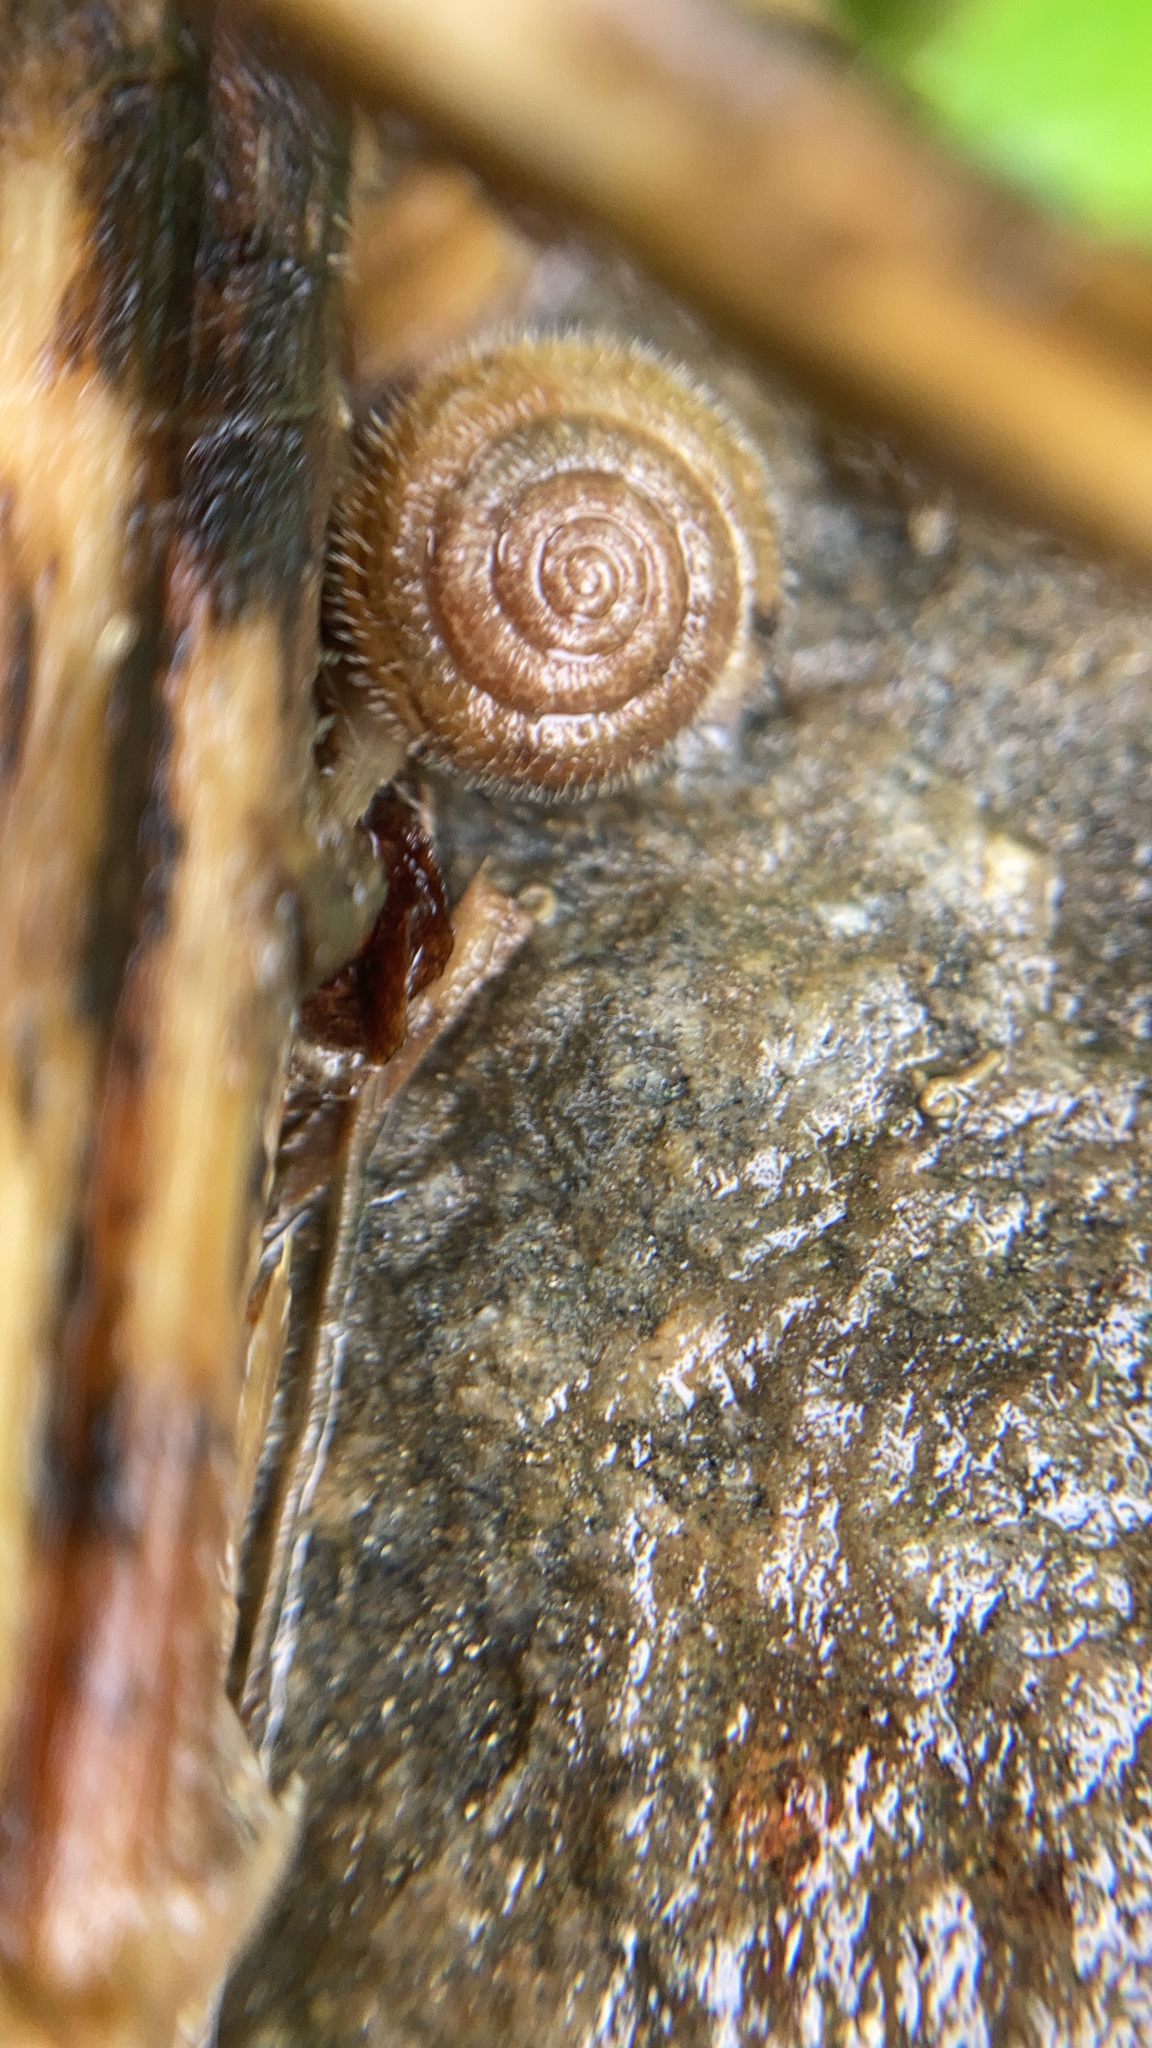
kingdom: Animalia
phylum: Mollusca
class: Gastropoda
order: Stylommatophora
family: Hygromiidae
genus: Trochulus
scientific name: Trochulus hispidus
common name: Hairy snail
